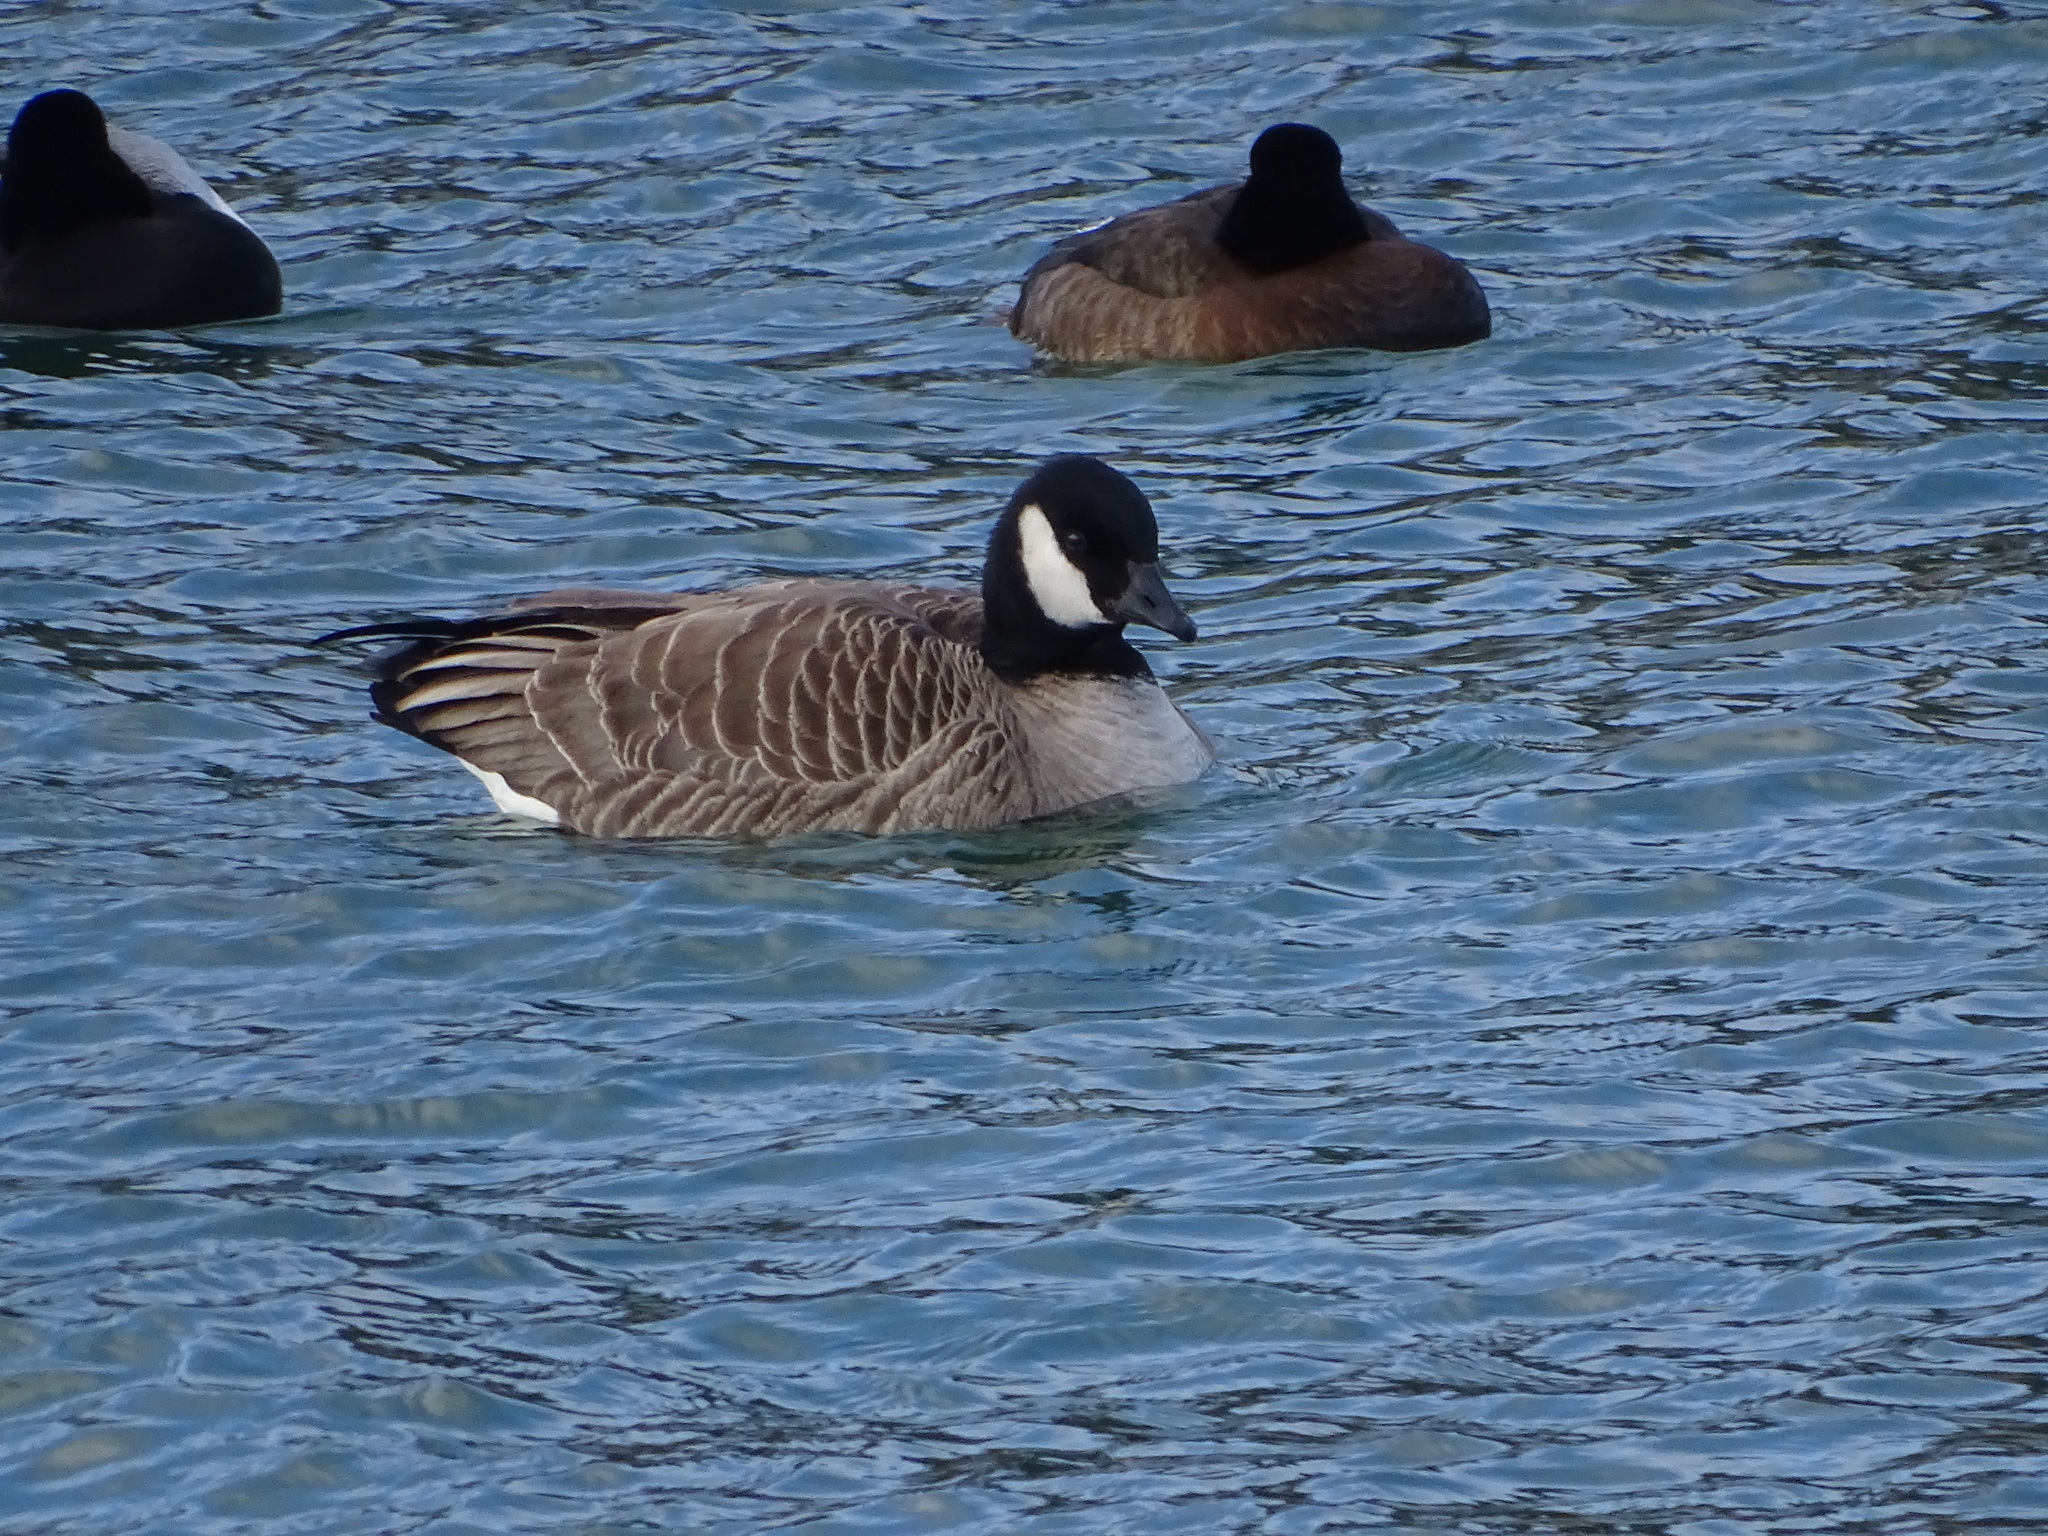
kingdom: Animalia
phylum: Chordata
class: Aves
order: Anseriformes
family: Anatidae
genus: Branta
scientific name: Branta hutchinsii
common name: Cackling goose
